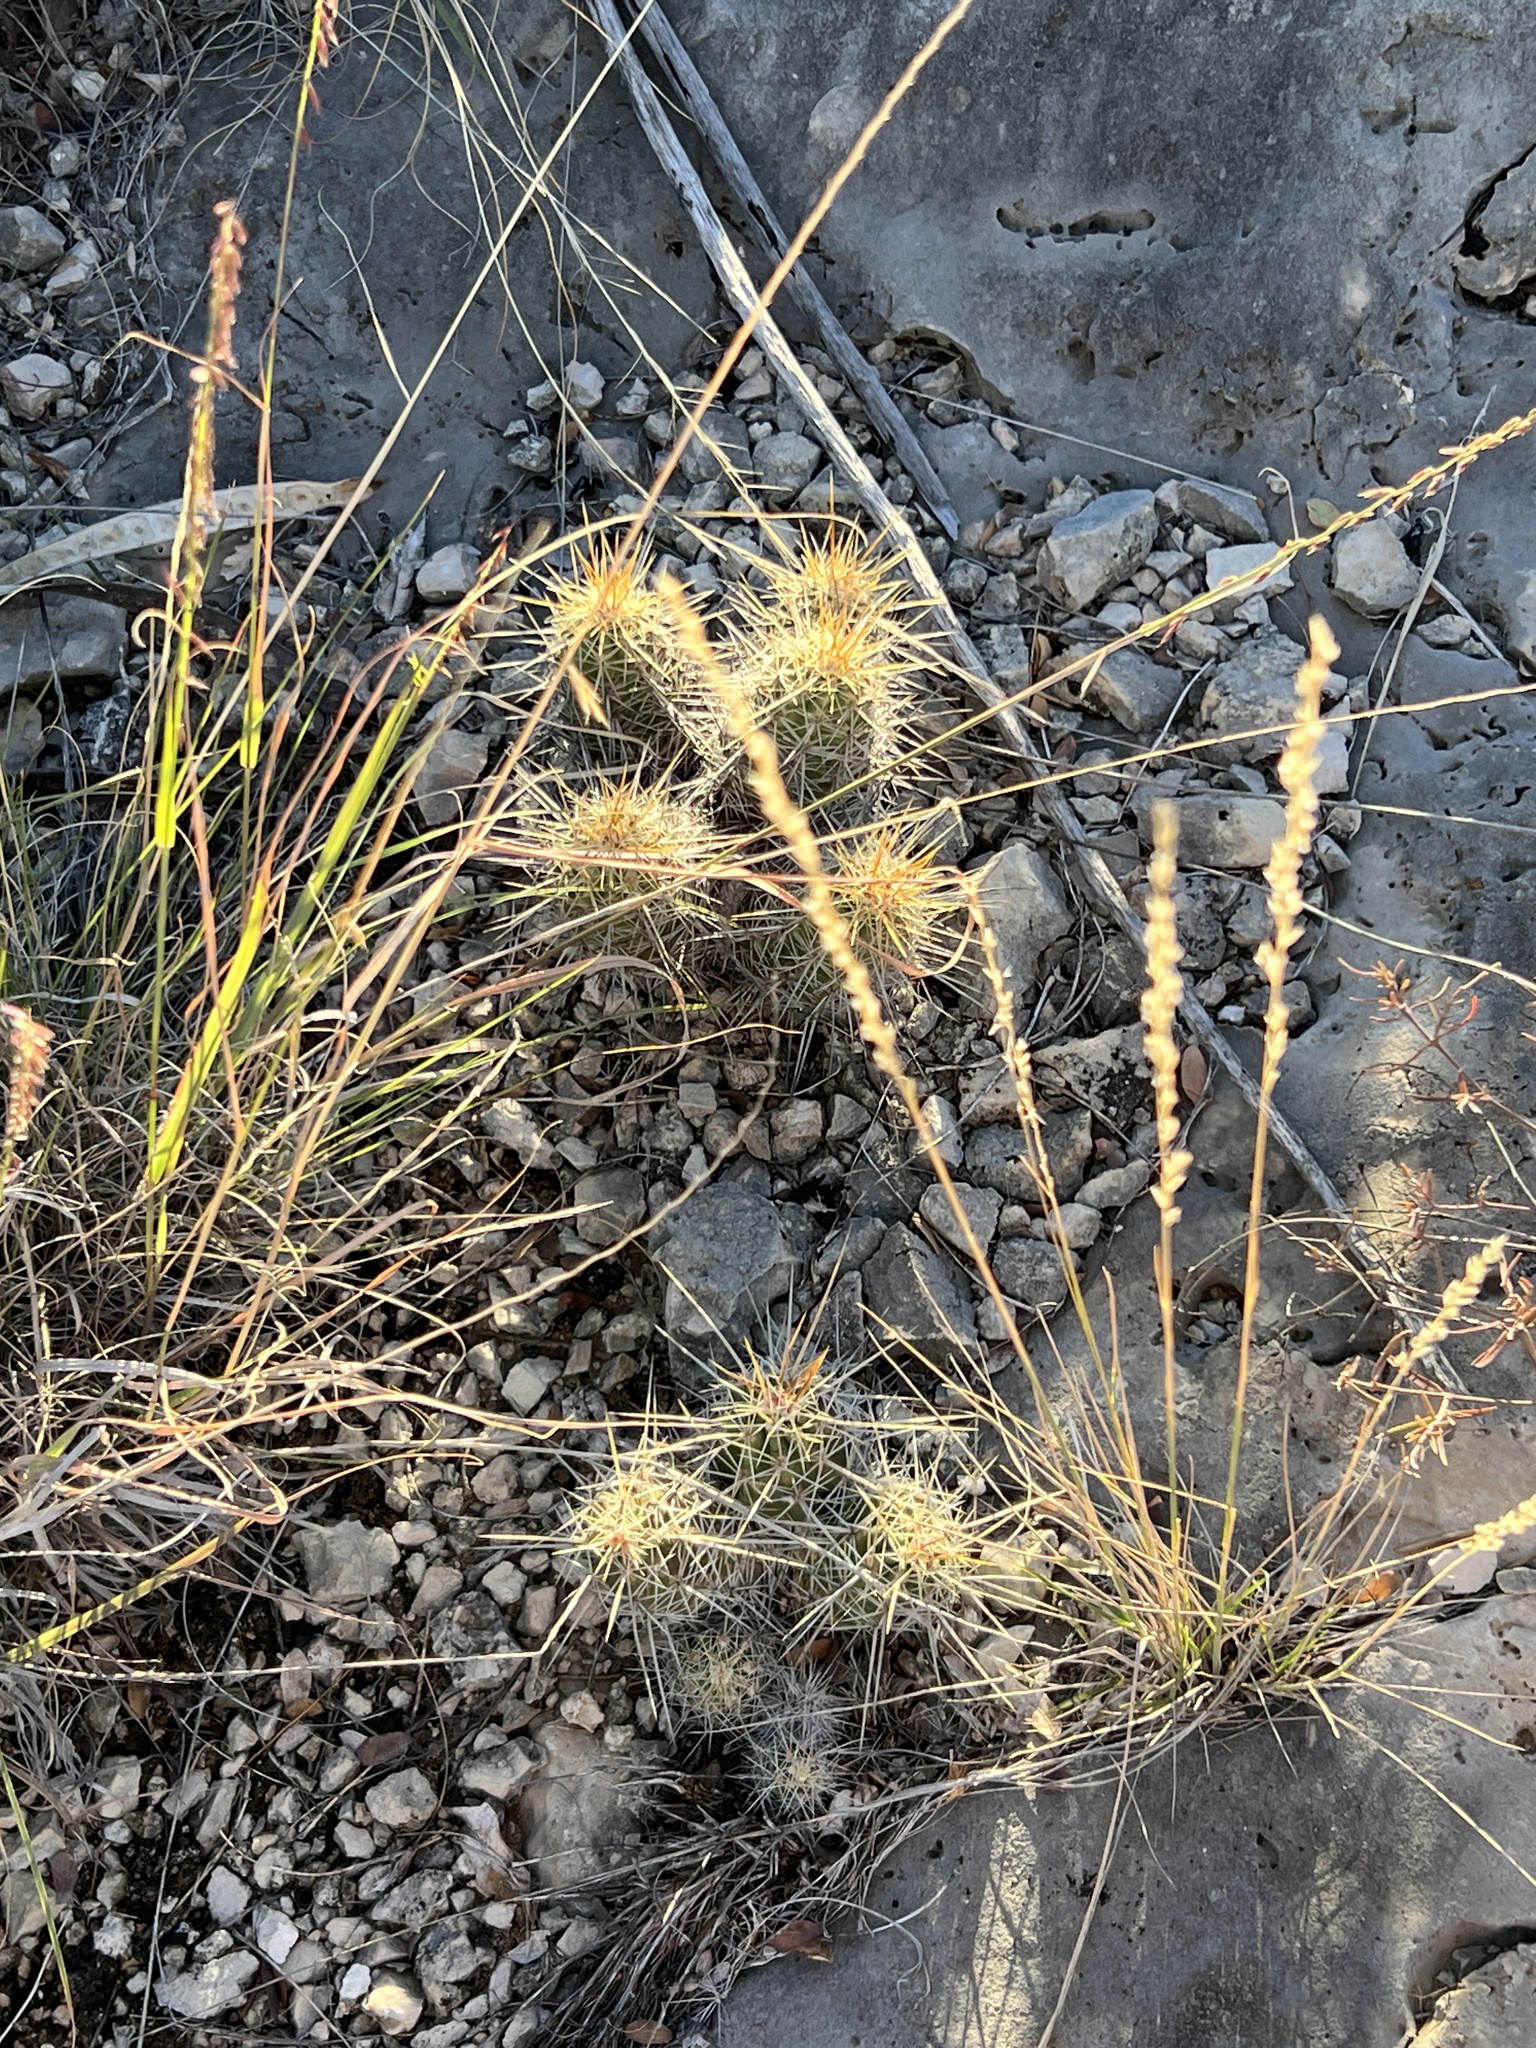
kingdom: Plantae
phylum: Tracheophyta
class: Magnoliopsida
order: Caryophyllales
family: Cactaceae
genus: Echinocereus
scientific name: Echinocereus enneacanthus
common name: Pitaya
